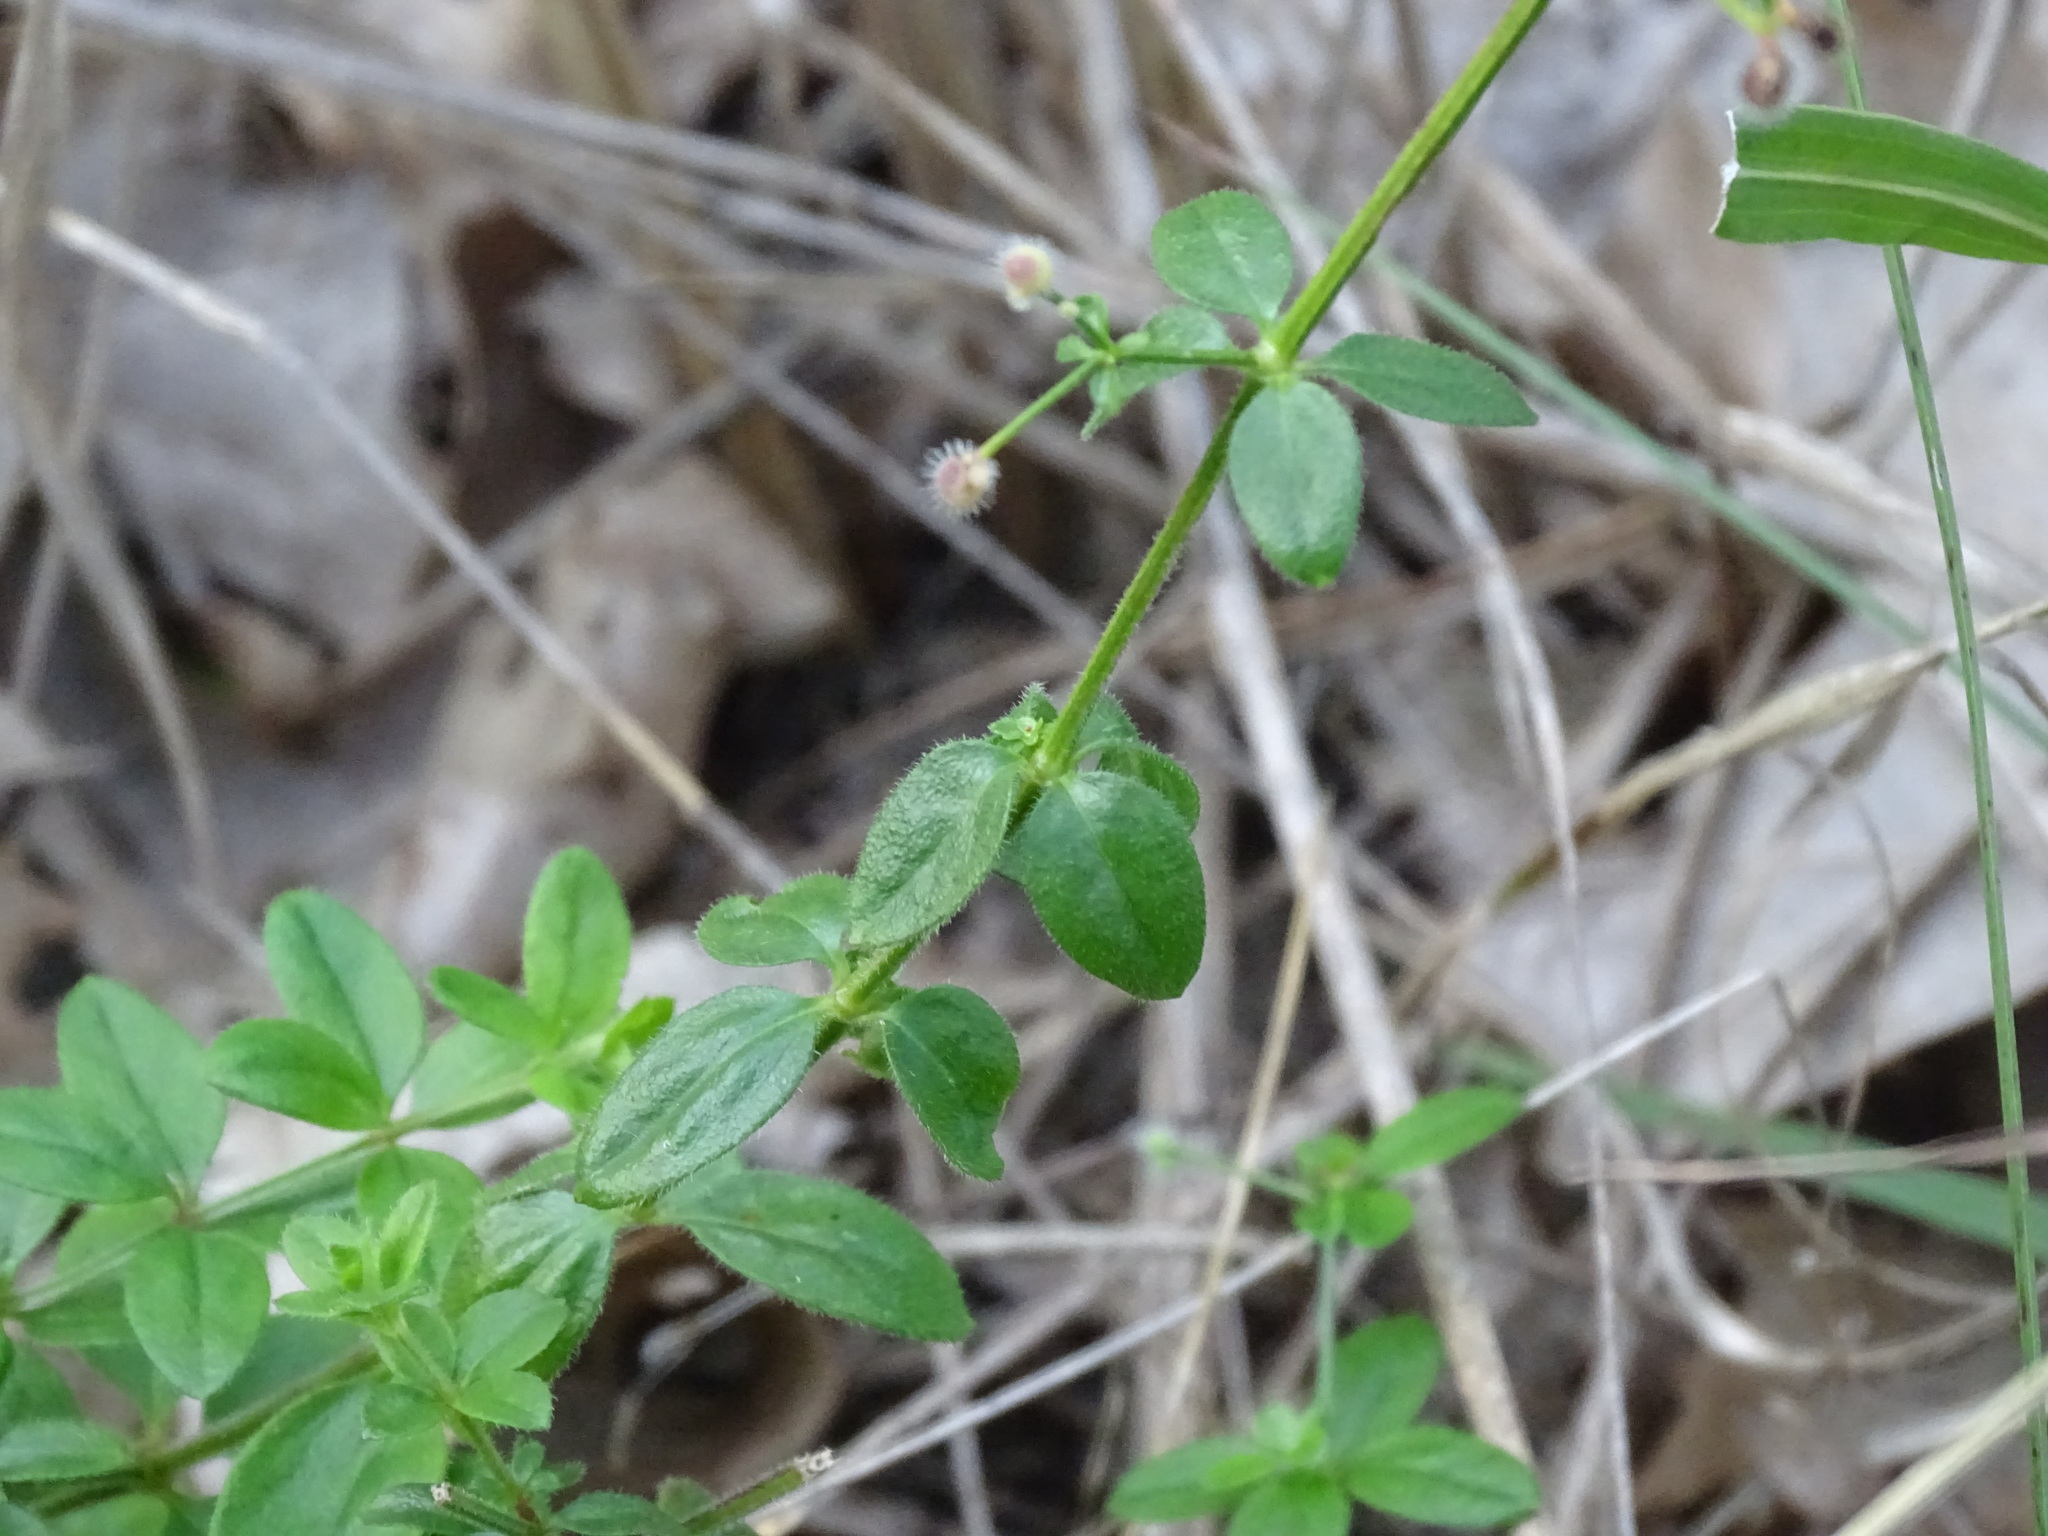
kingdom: Plantae
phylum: Tracheophyta
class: Magnoliopsida
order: Gentianales
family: Rubiaceae
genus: Galium
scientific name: Galium pilosum
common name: Hairy bedstraw
